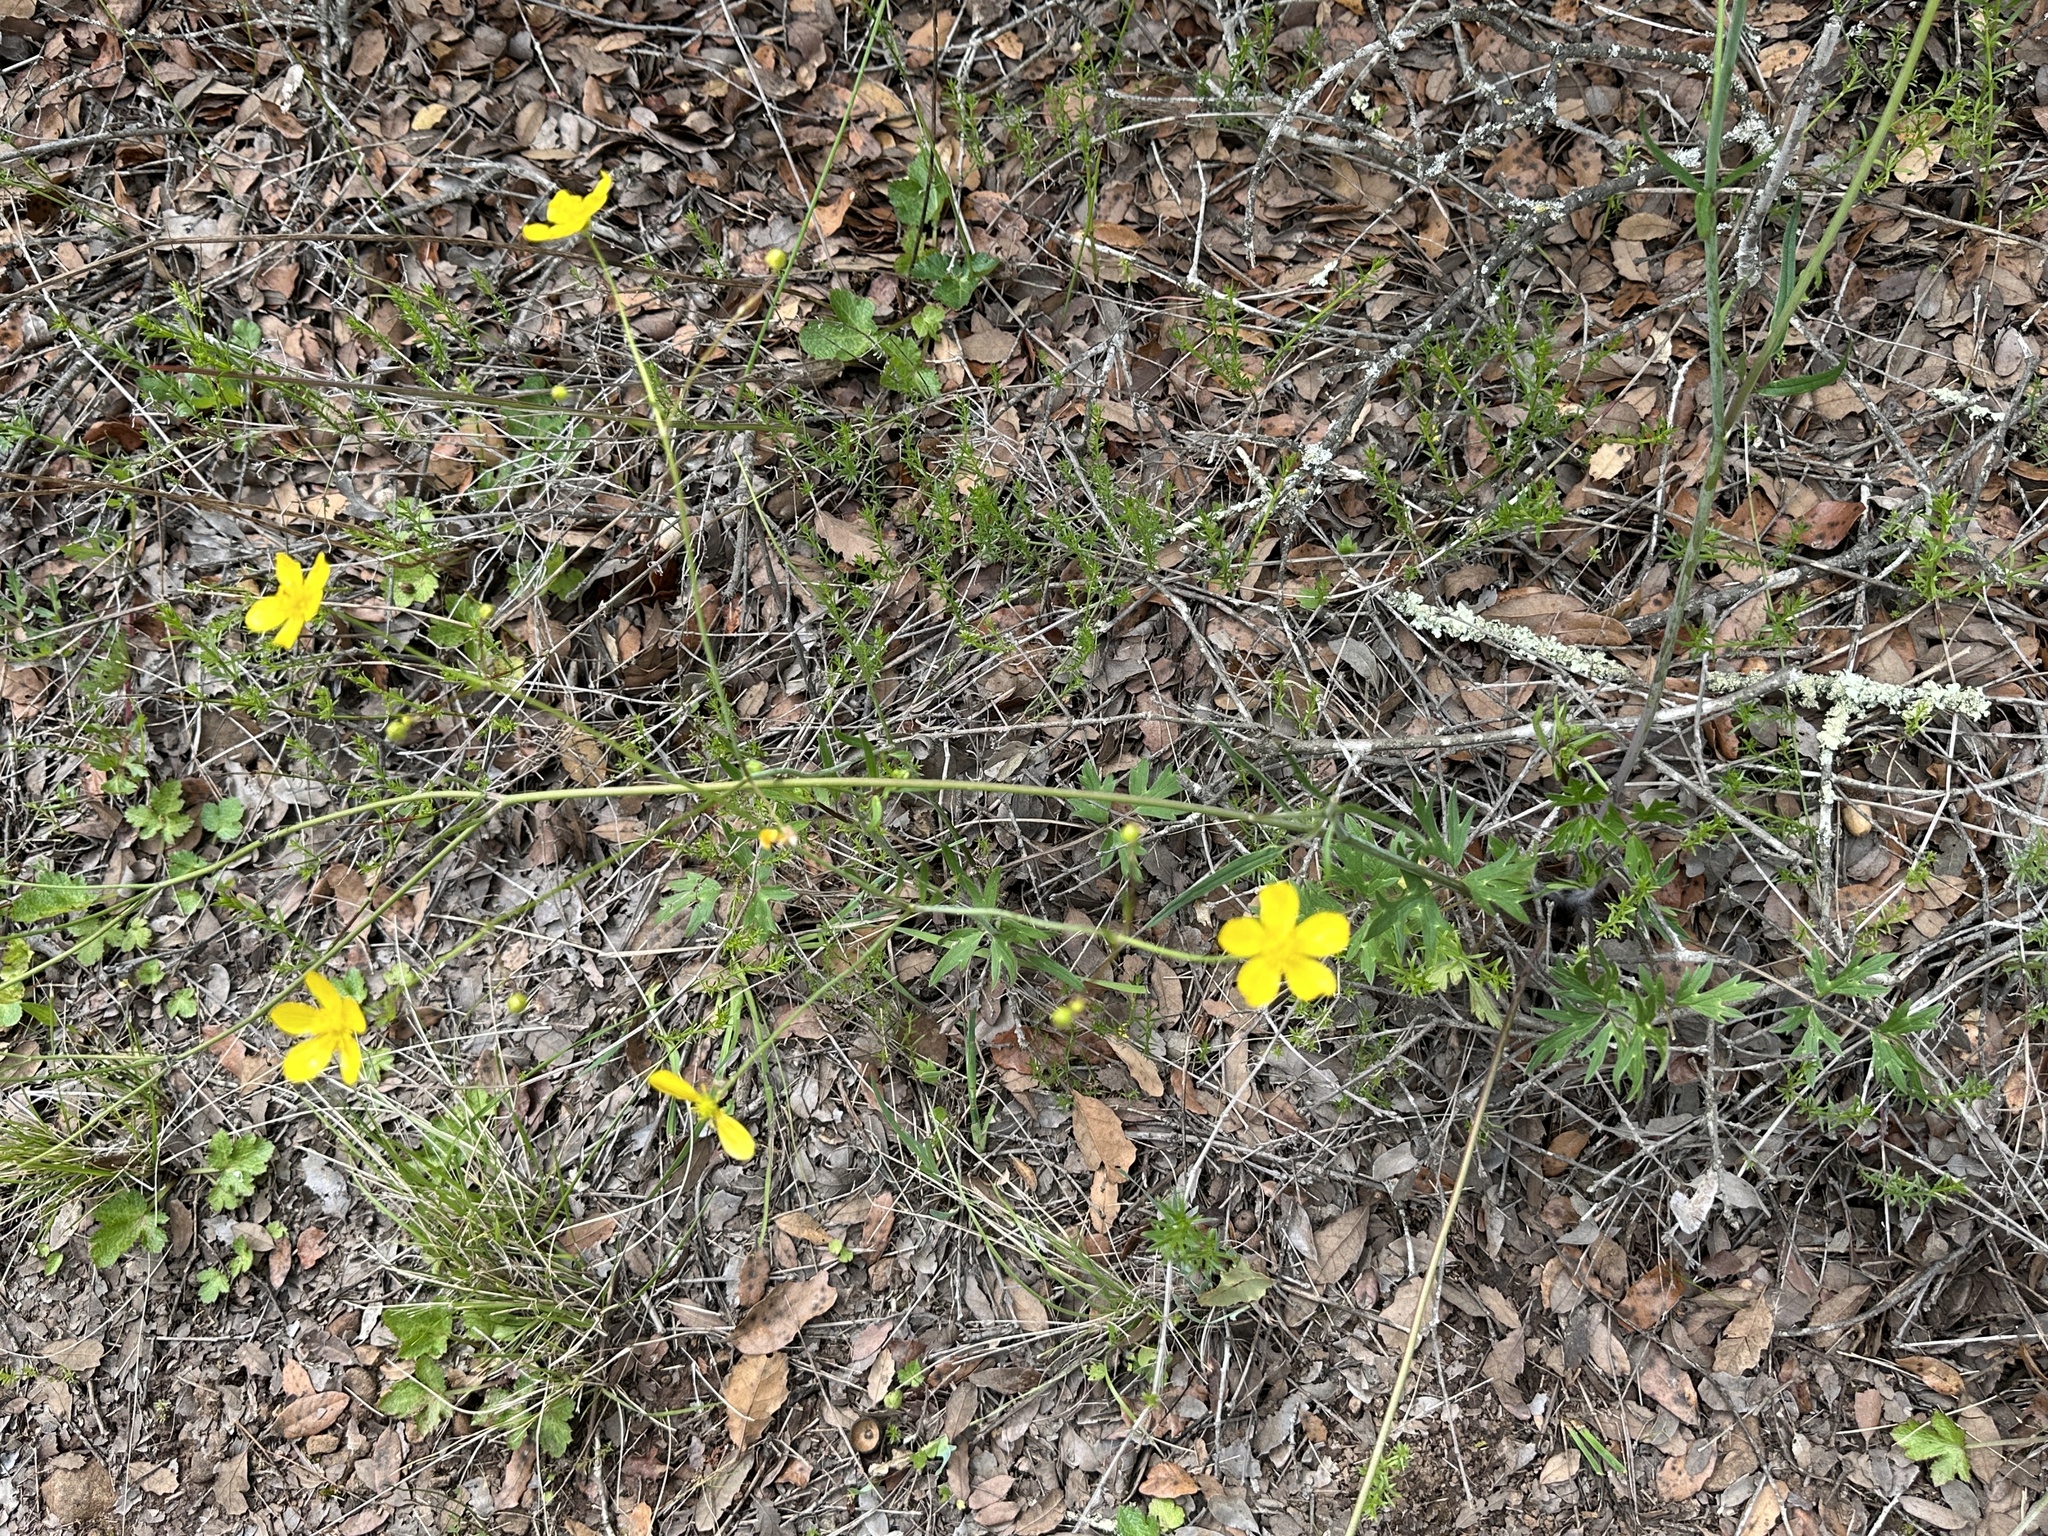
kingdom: Plantae
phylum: Tracheophyta
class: Magnoliopsida
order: Ranunculales
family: Ranunculaceae
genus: Ranunculus
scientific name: Ranunculus occidentalis
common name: Western buttercup
